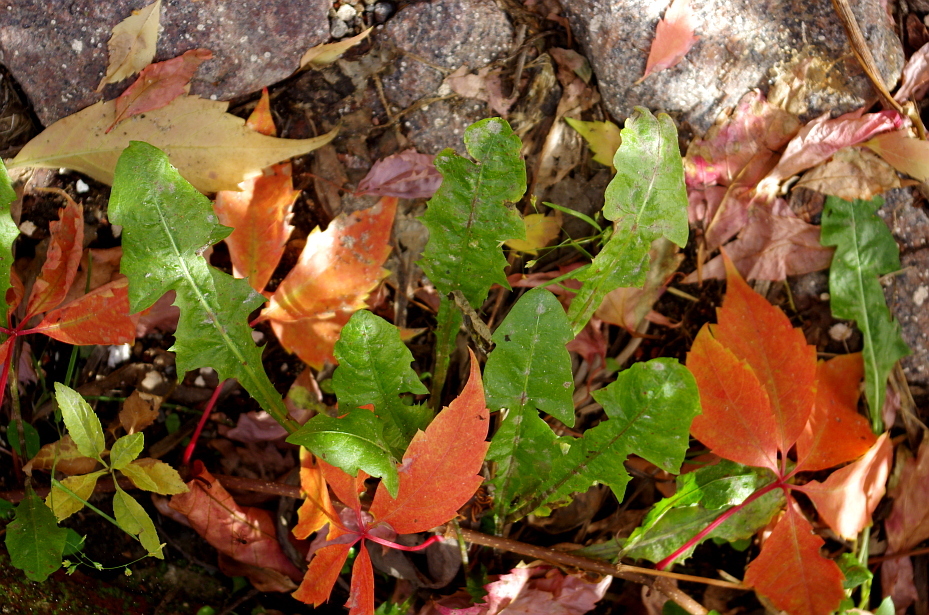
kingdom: Plantae
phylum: Tracheophyta
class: Magnoliopsida
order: Asterales
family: Asteraceae
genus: Taraxacum
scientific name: Taraxacum officinale
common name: Common dandelion
